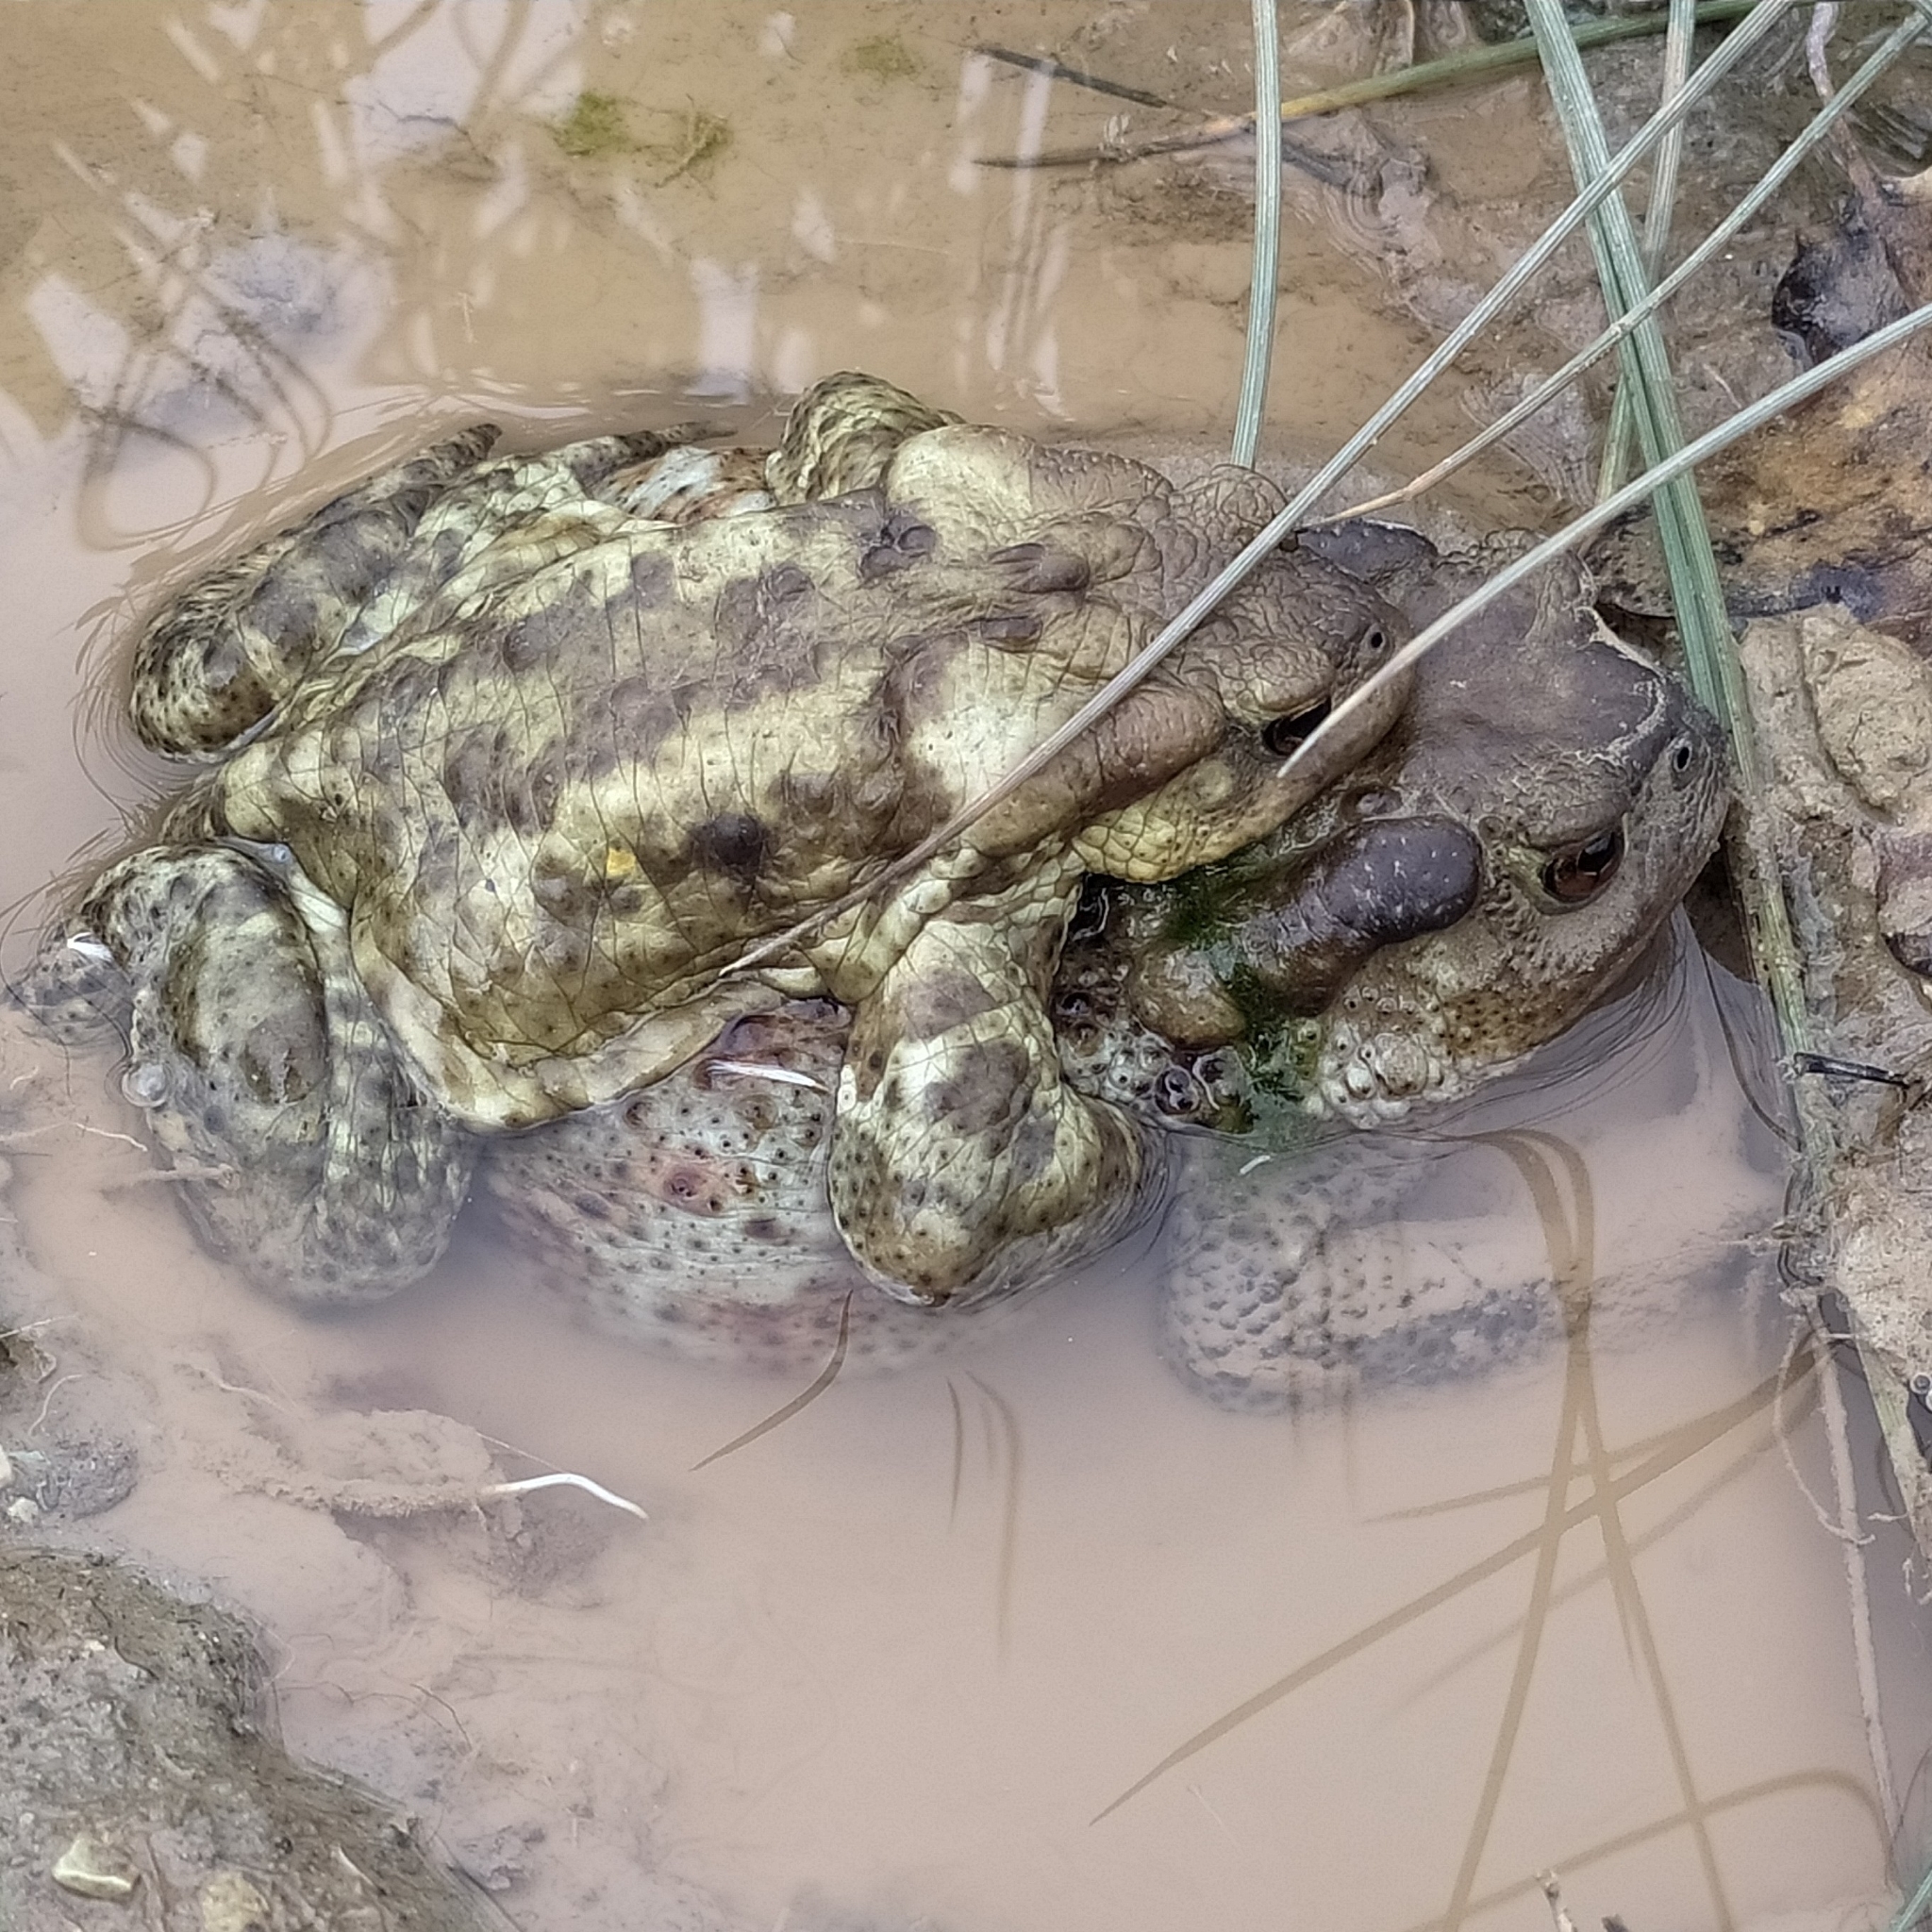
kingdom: Animalia
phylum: Chordata
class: Amphibia
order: Anura
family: Bufonidae
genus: Bufo
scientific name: Bufo bufo
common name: Common toad
